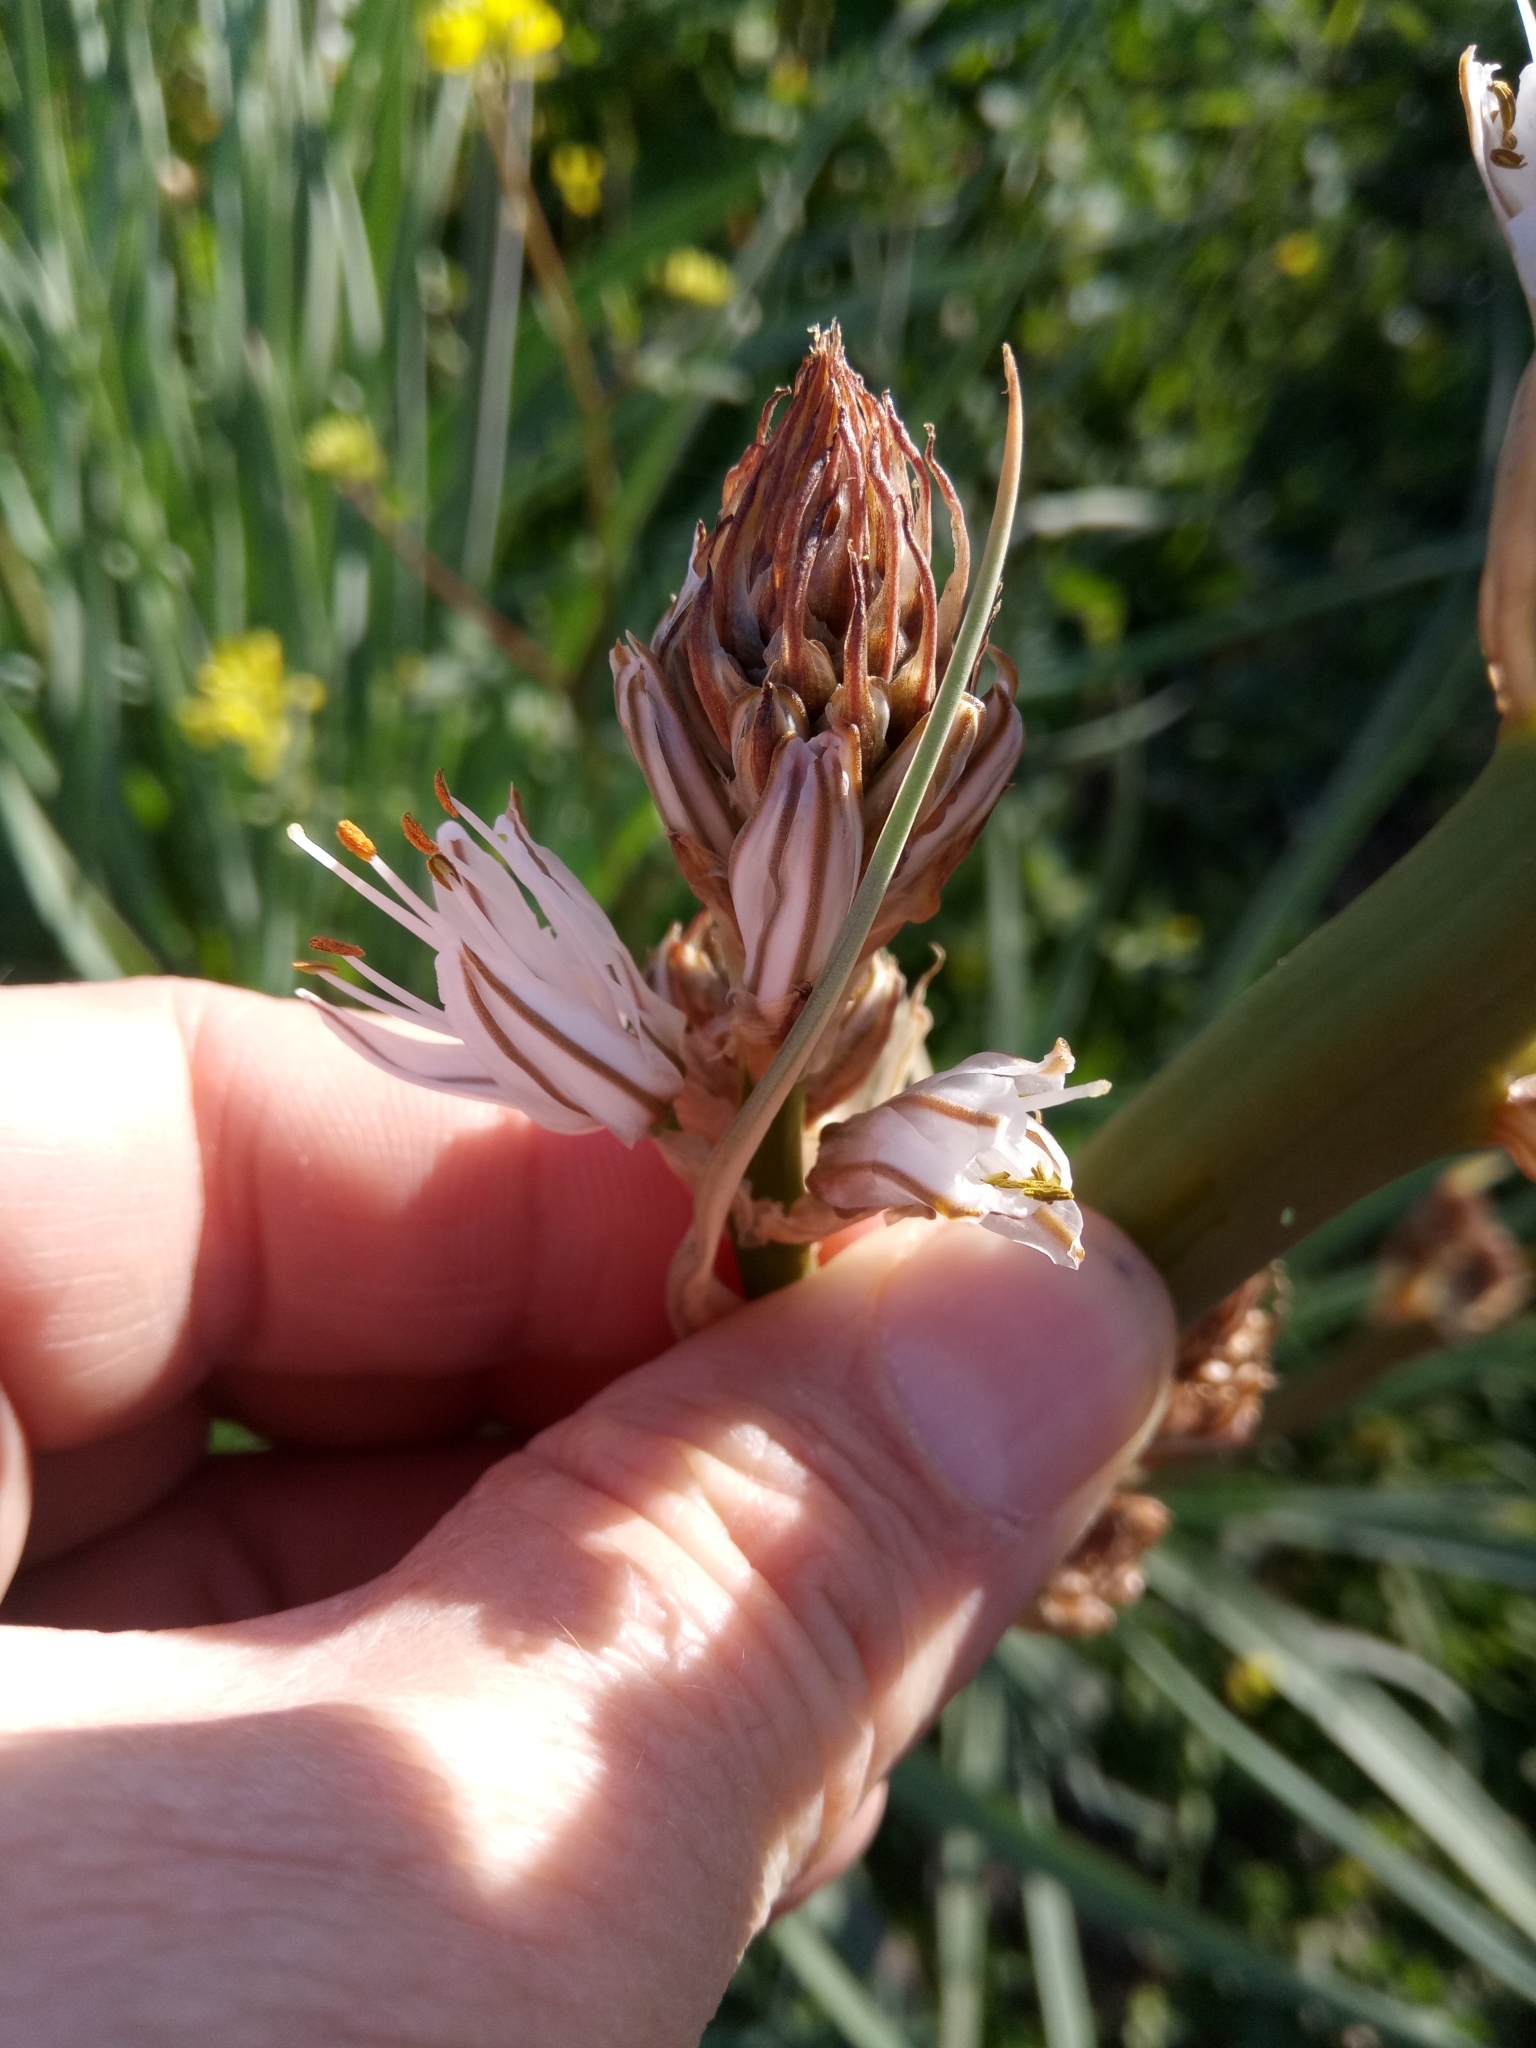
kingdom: Plantae
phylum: Tracheophyta
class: Liliopsida
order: Asparagales
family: Asphodelaceae
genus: Asphodelus
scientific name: Asphodelus ramosus
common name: Silverrod
